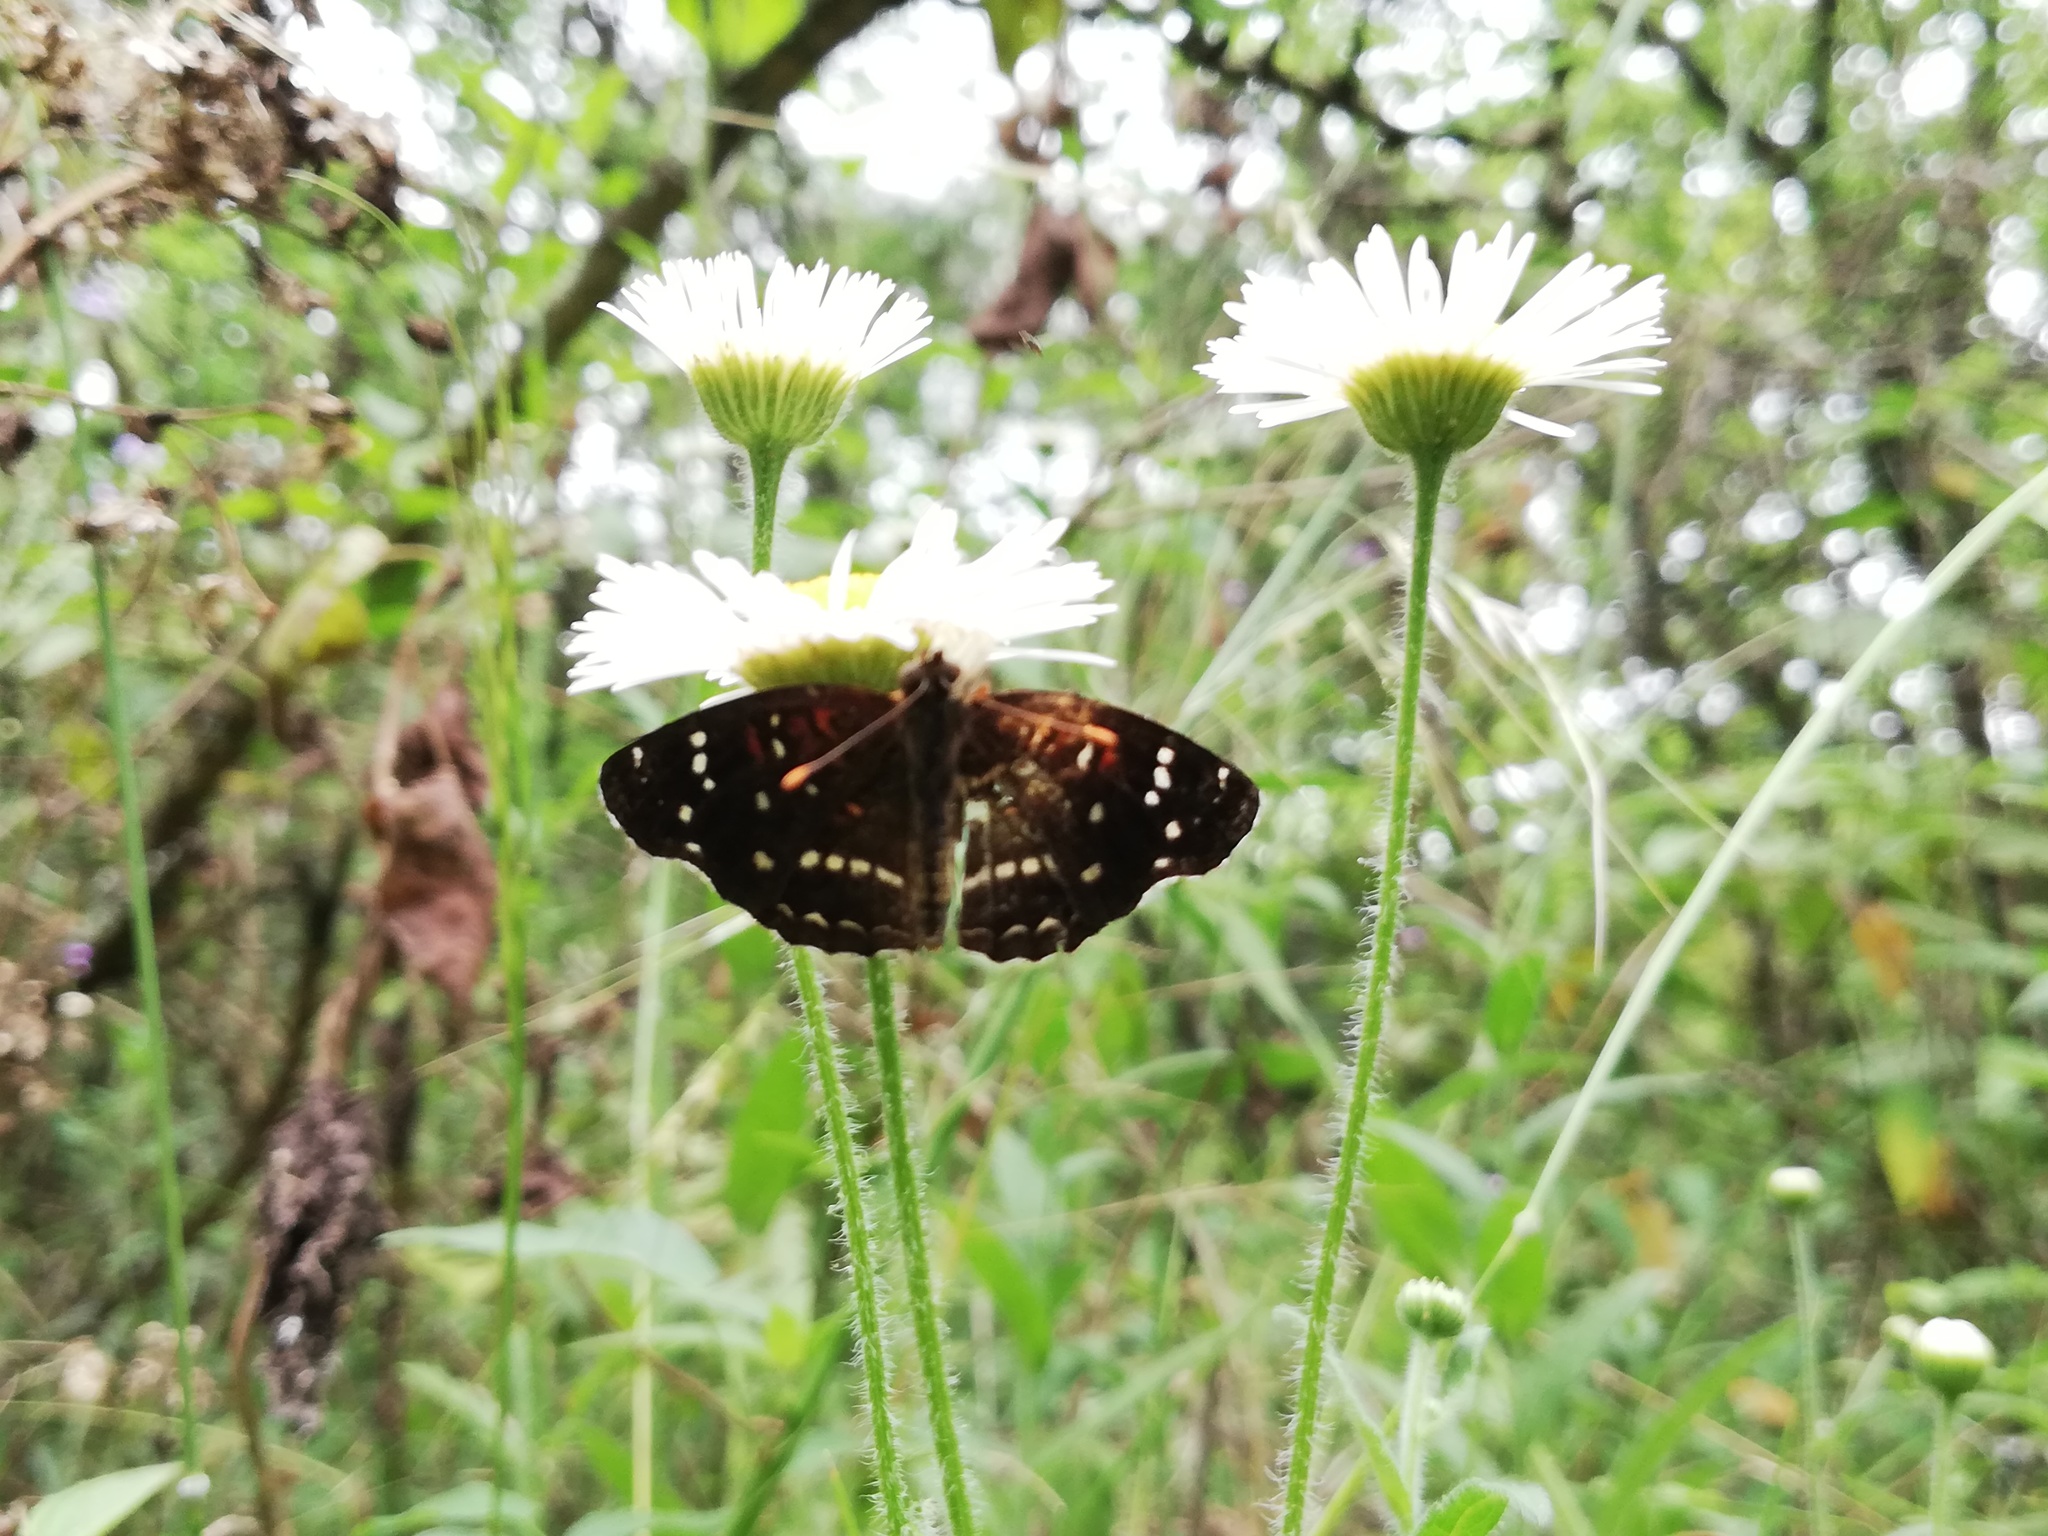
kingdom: Animalia
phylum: Arthropoda
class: Insecta
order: Lepidoptera
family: Nymphalidae
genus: Anthanassa
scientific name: Anthanassa texana
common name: Texan crescent
